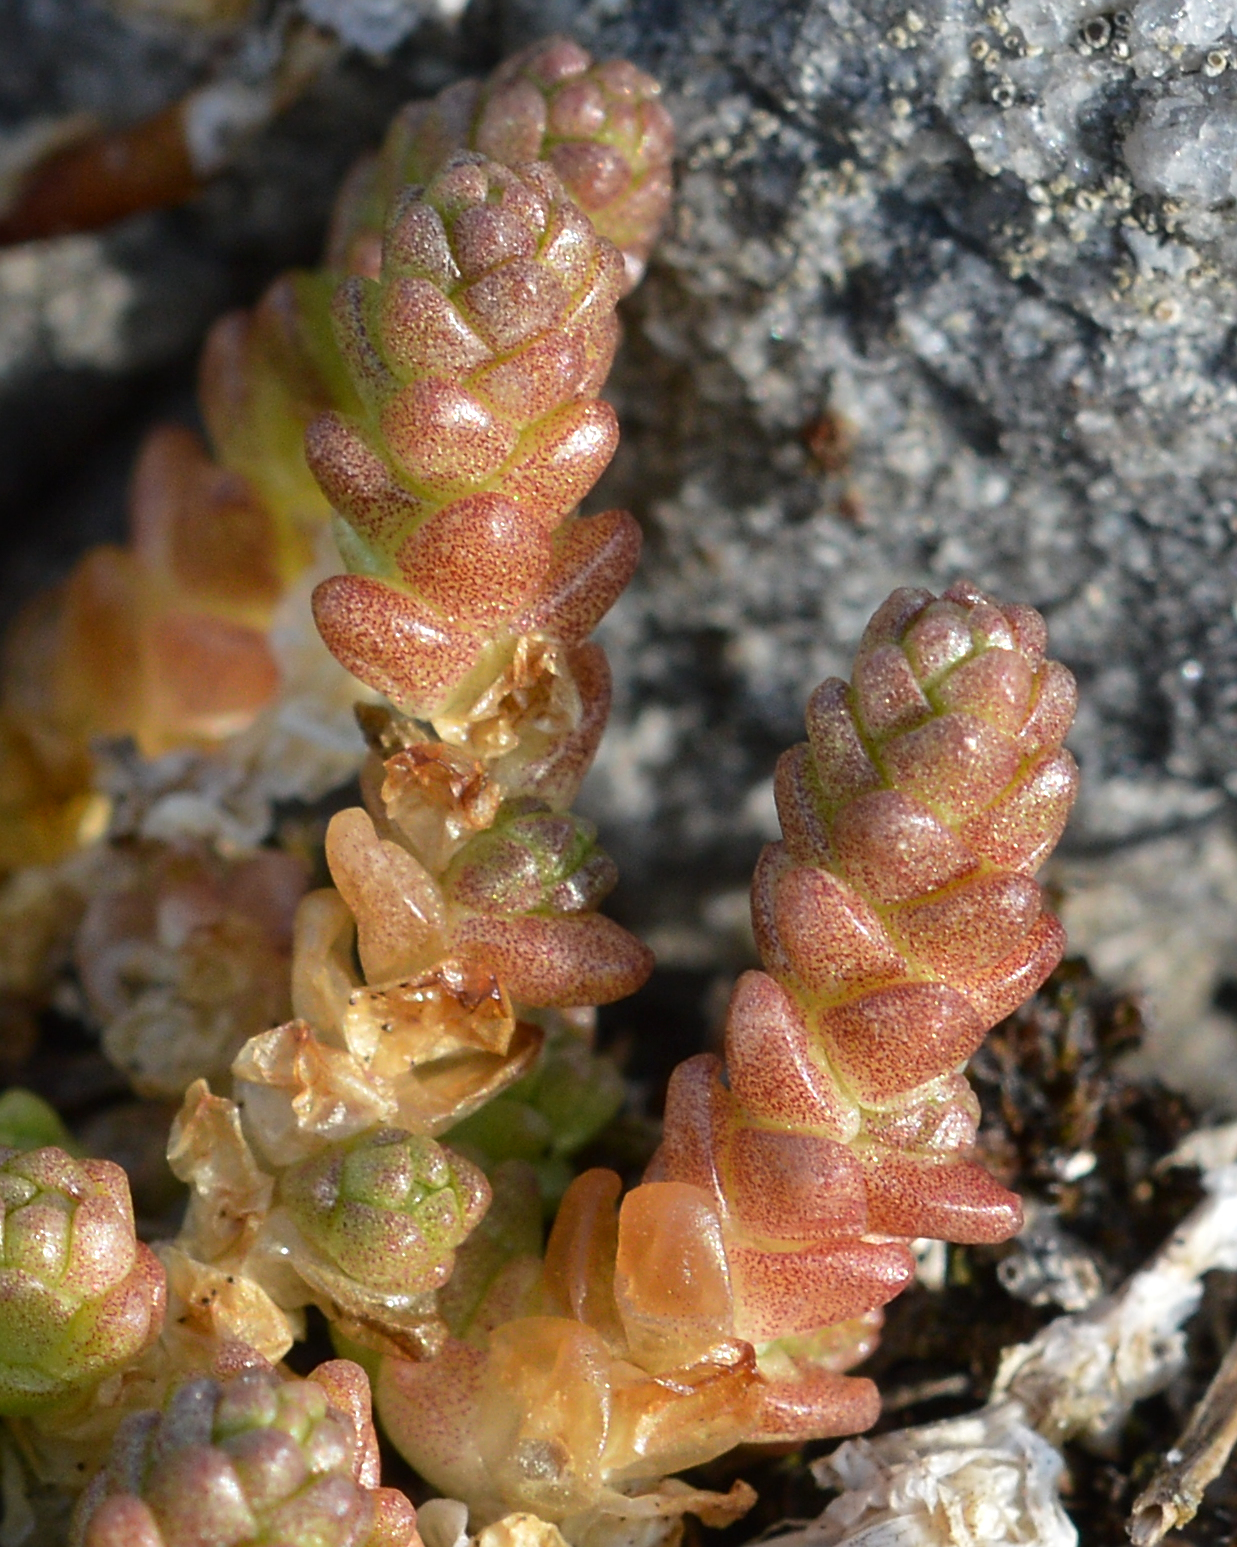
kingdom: Plantae
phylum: Tracheophyta
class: Magnoliopsida
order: Saxifragales
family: Crassulaceae
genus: Sedum
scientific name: Sedum acre
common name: Biting stonecrop
